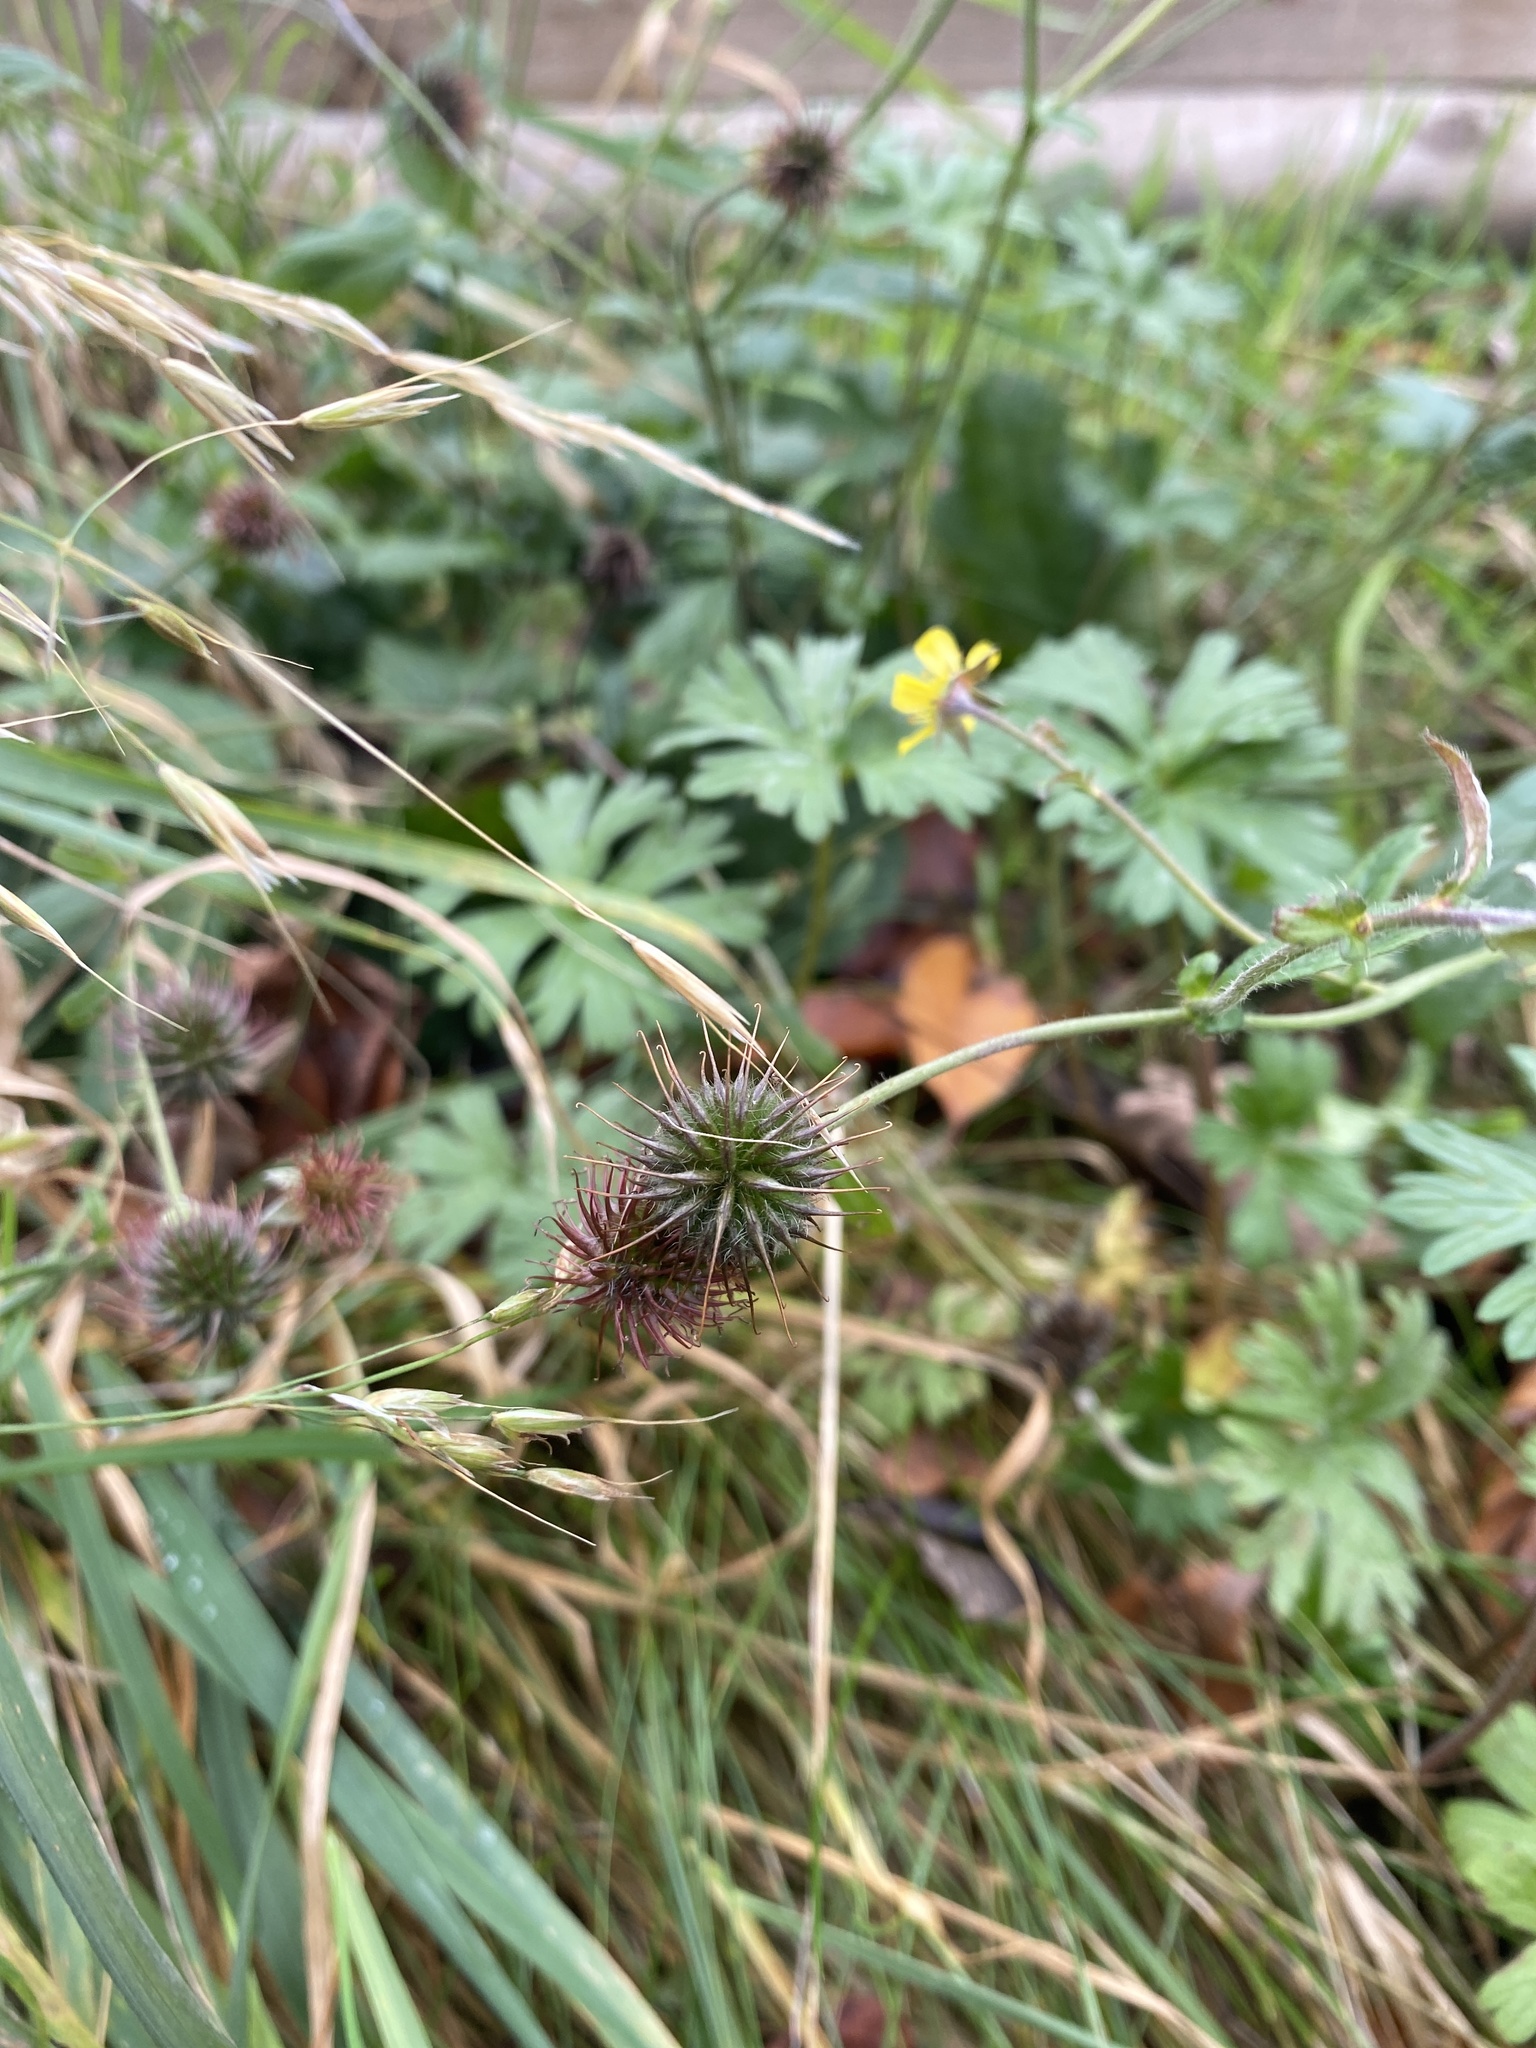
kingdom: Plantae
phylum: Tracheophyta
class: Magnoliopsida
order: Rosales
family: Rosaceae
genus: Geum
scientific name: Geum urbanum
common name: Wood avens
